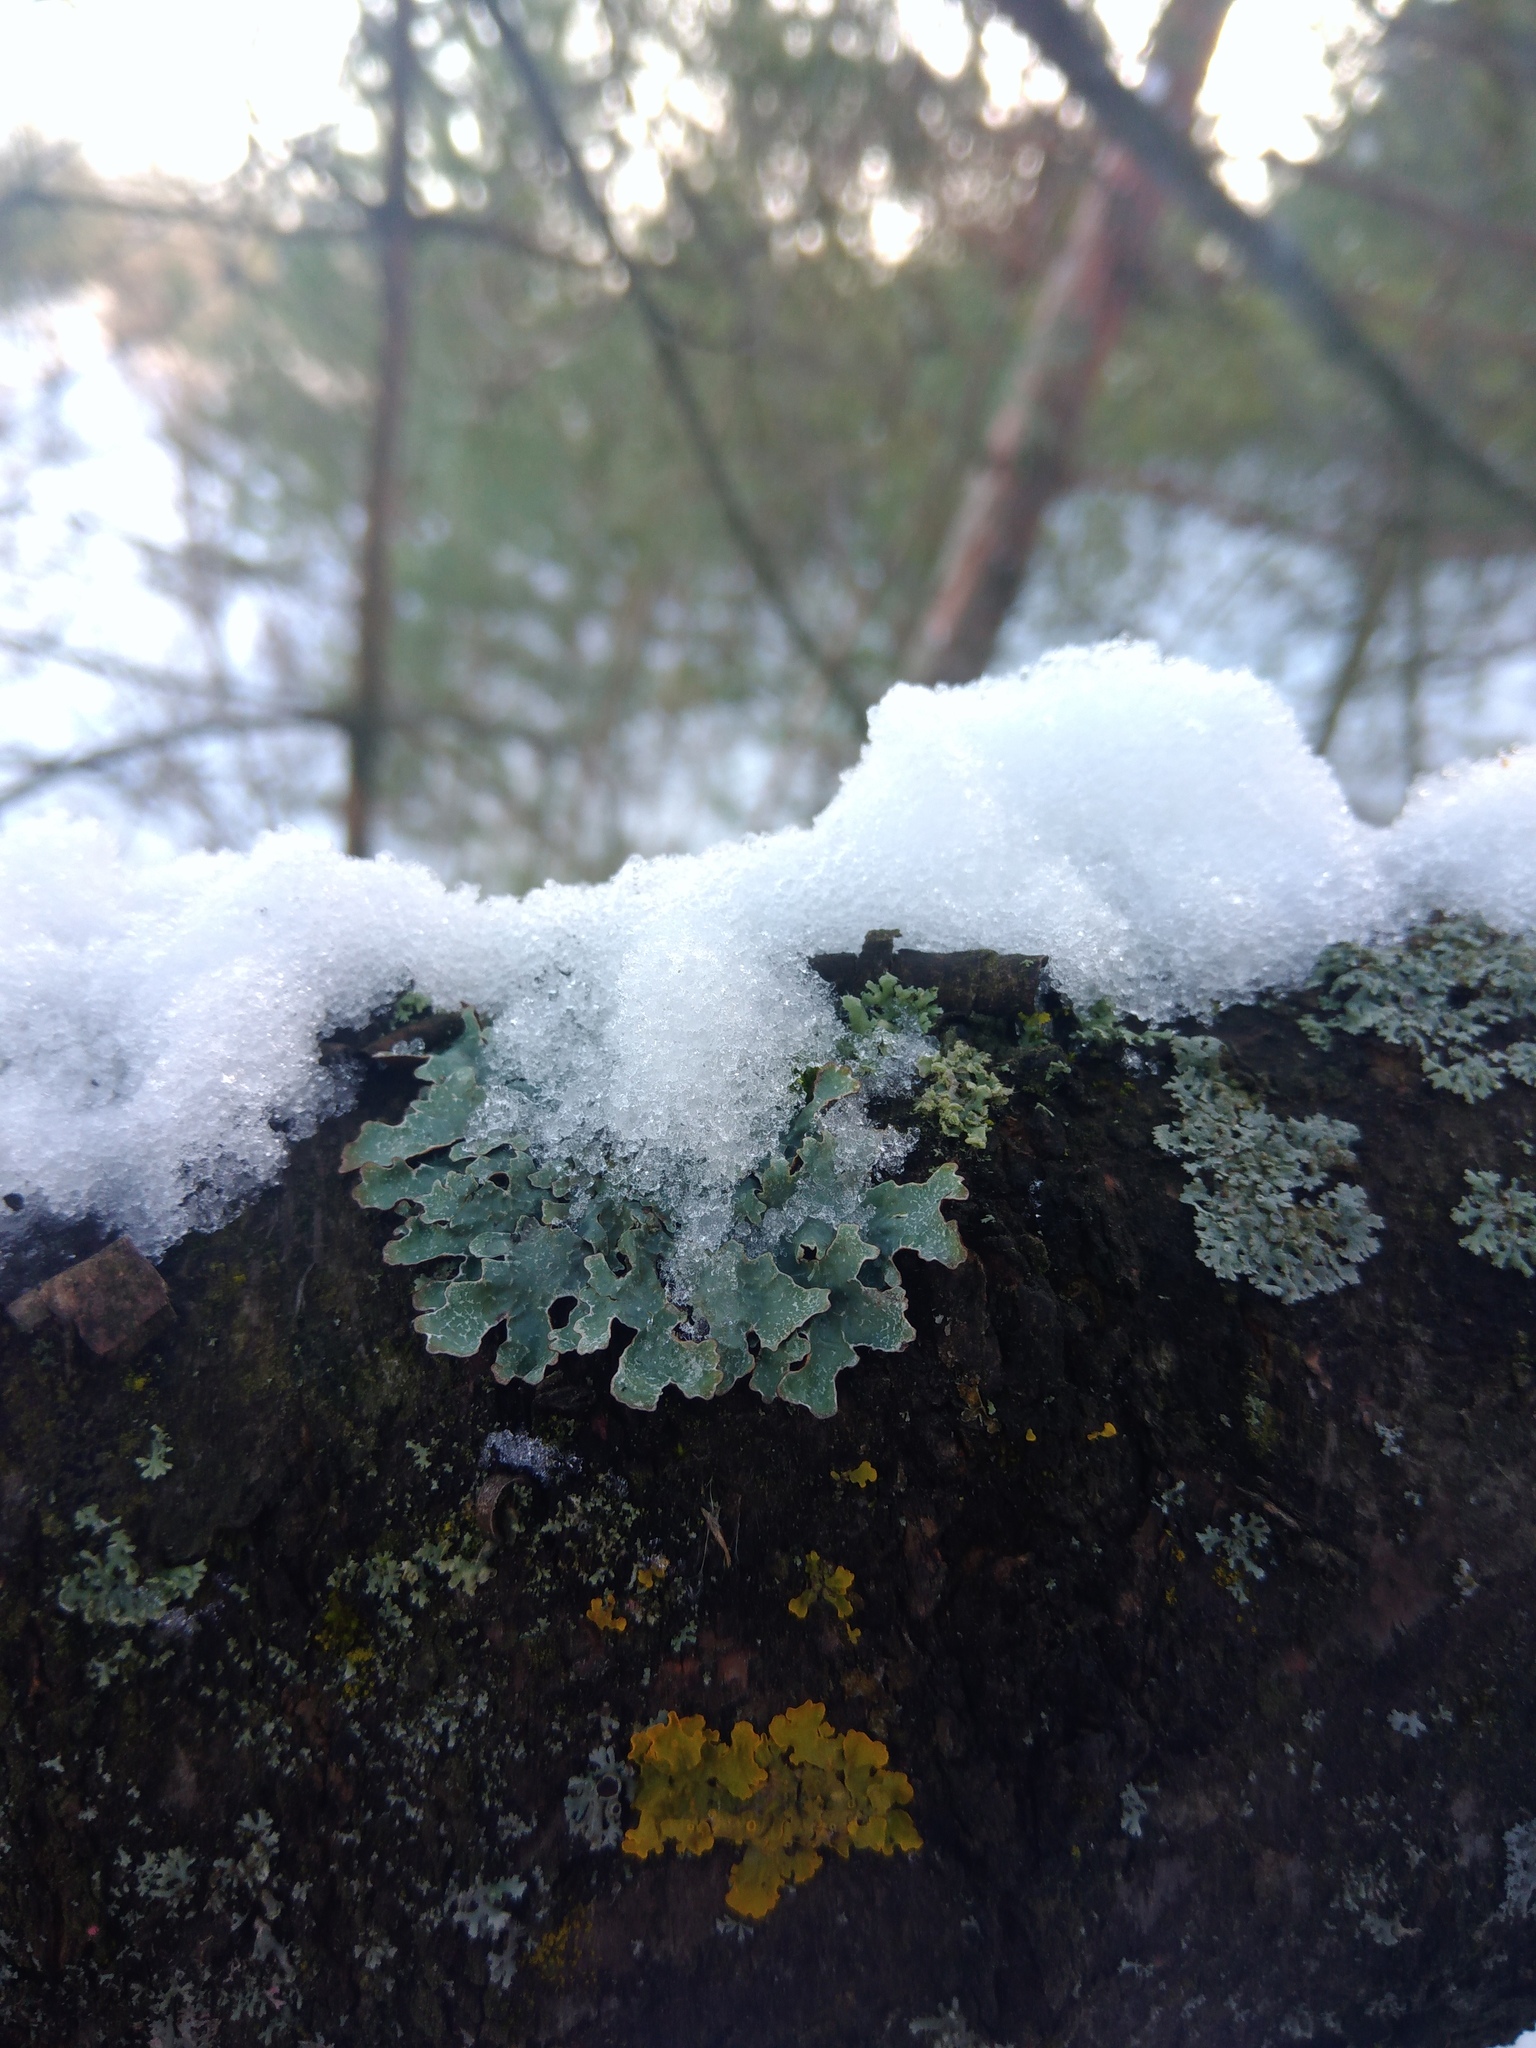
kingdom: Fungi
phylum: Ascomycota
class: Lecanoromycetes
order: Lecanorales
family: Parmeliaceae
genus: Parmelia
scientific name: Parmelia sulcata
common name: Netted shield lichen
